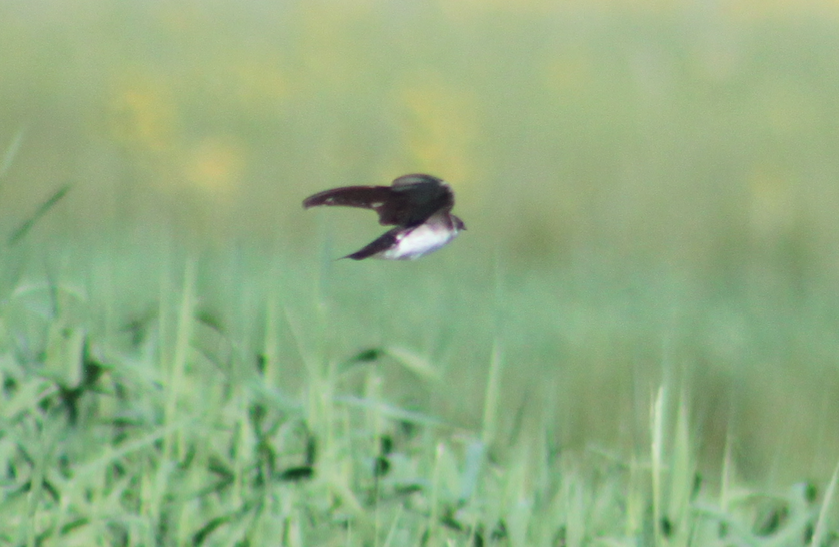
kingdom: Animalia
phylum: Chordata
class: Aves
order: Passeriformes
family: Hirundinidae
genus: Tachycineta
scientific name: Tachycineta bicolor
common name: Tree swallow
